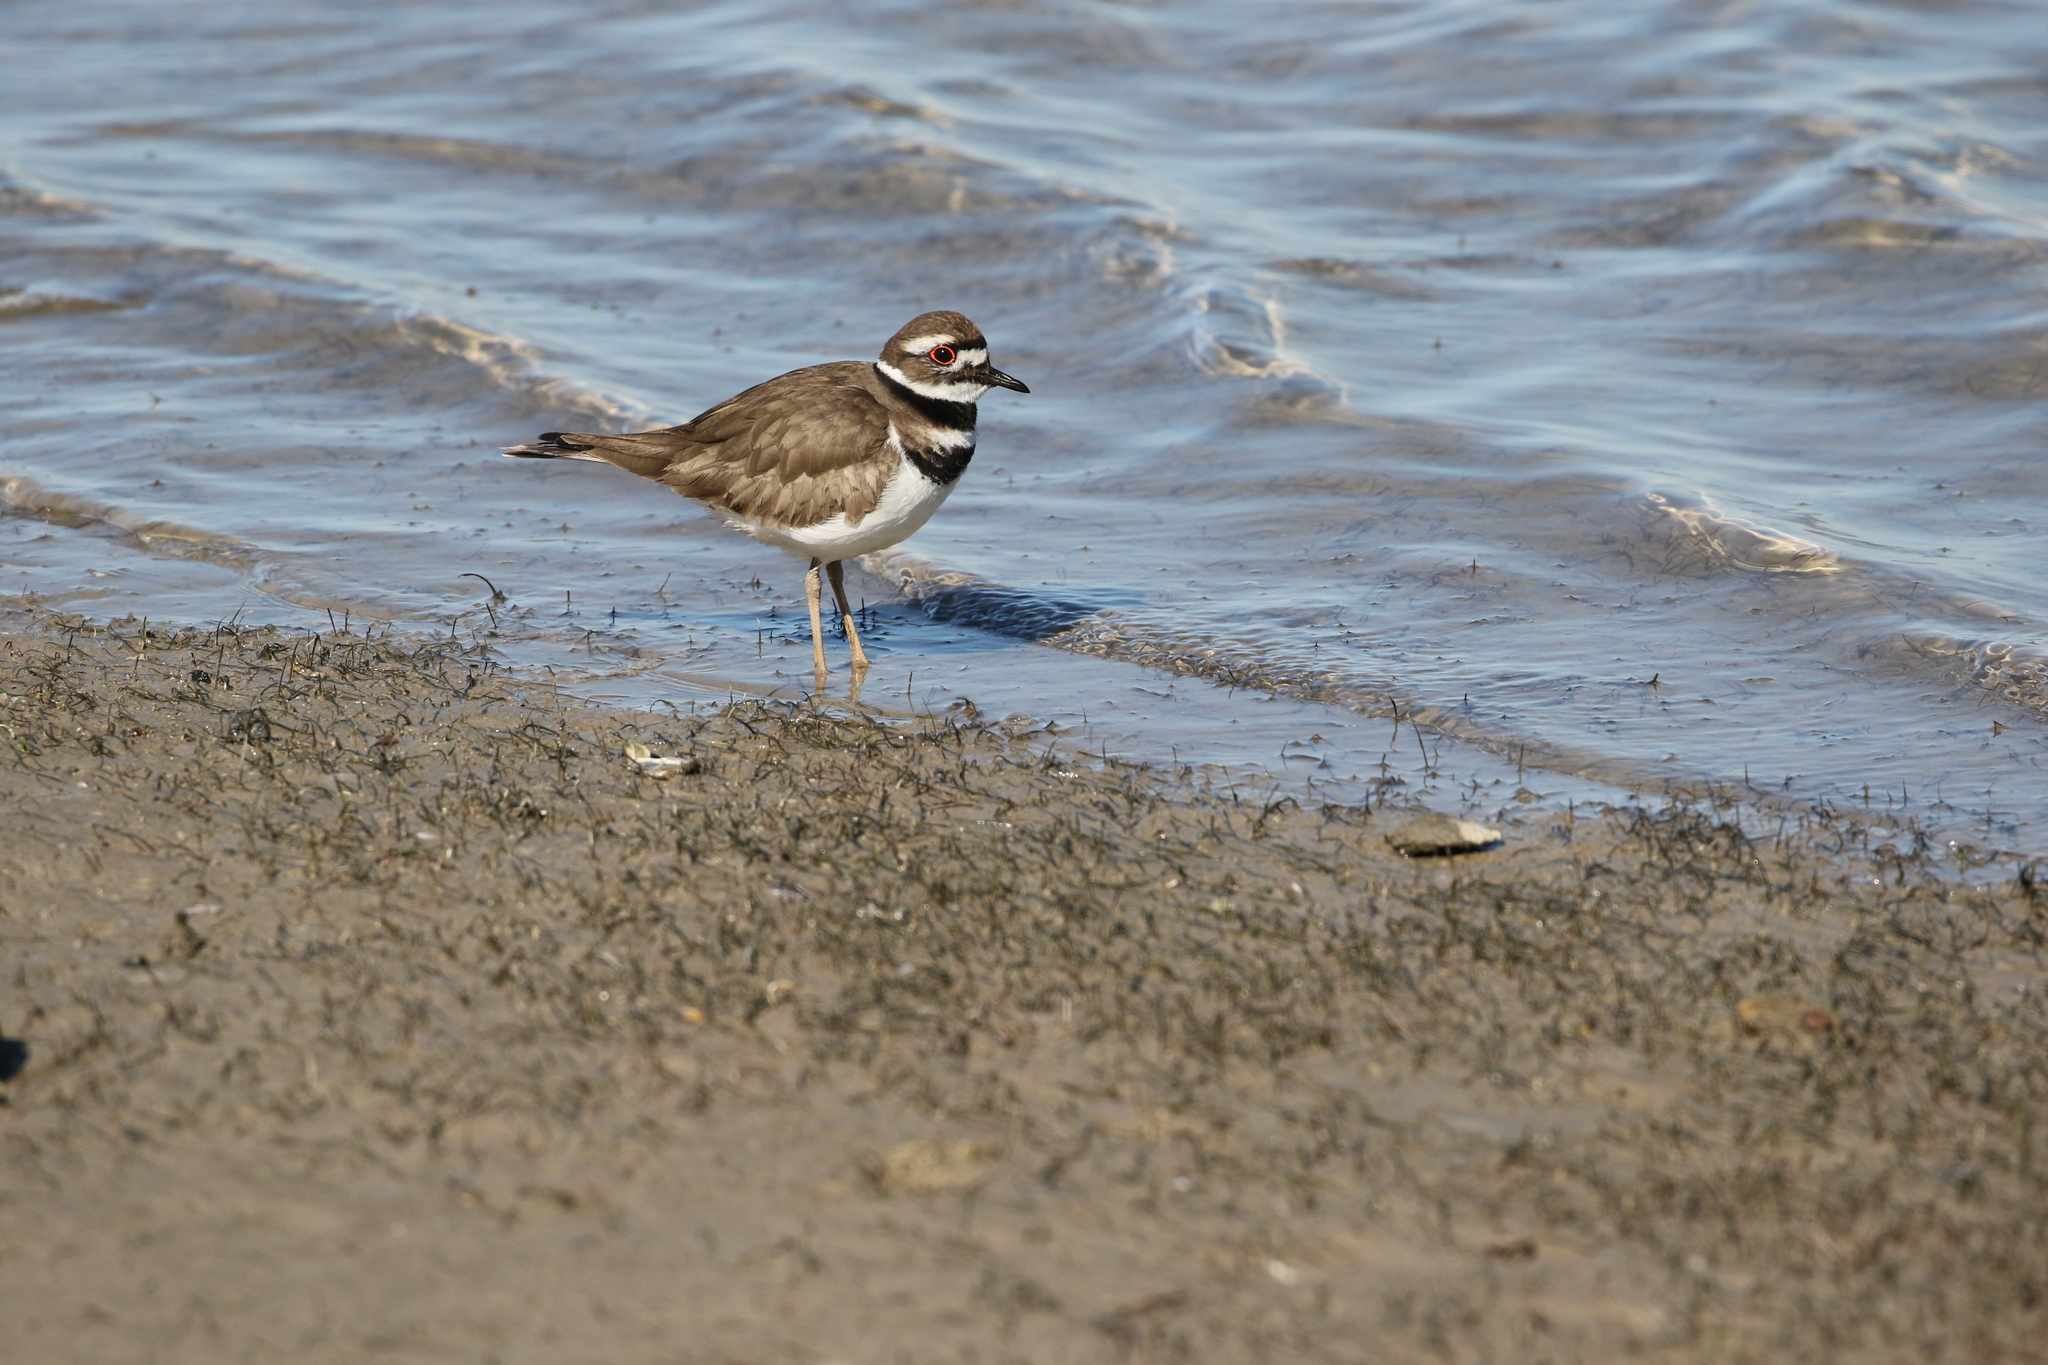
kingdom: Animalia
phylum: Chordata
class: Aves
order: Charadriiformes
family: Charadriidae
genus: Charadrius
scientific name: Charadrius vociferus
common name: Killdeer
